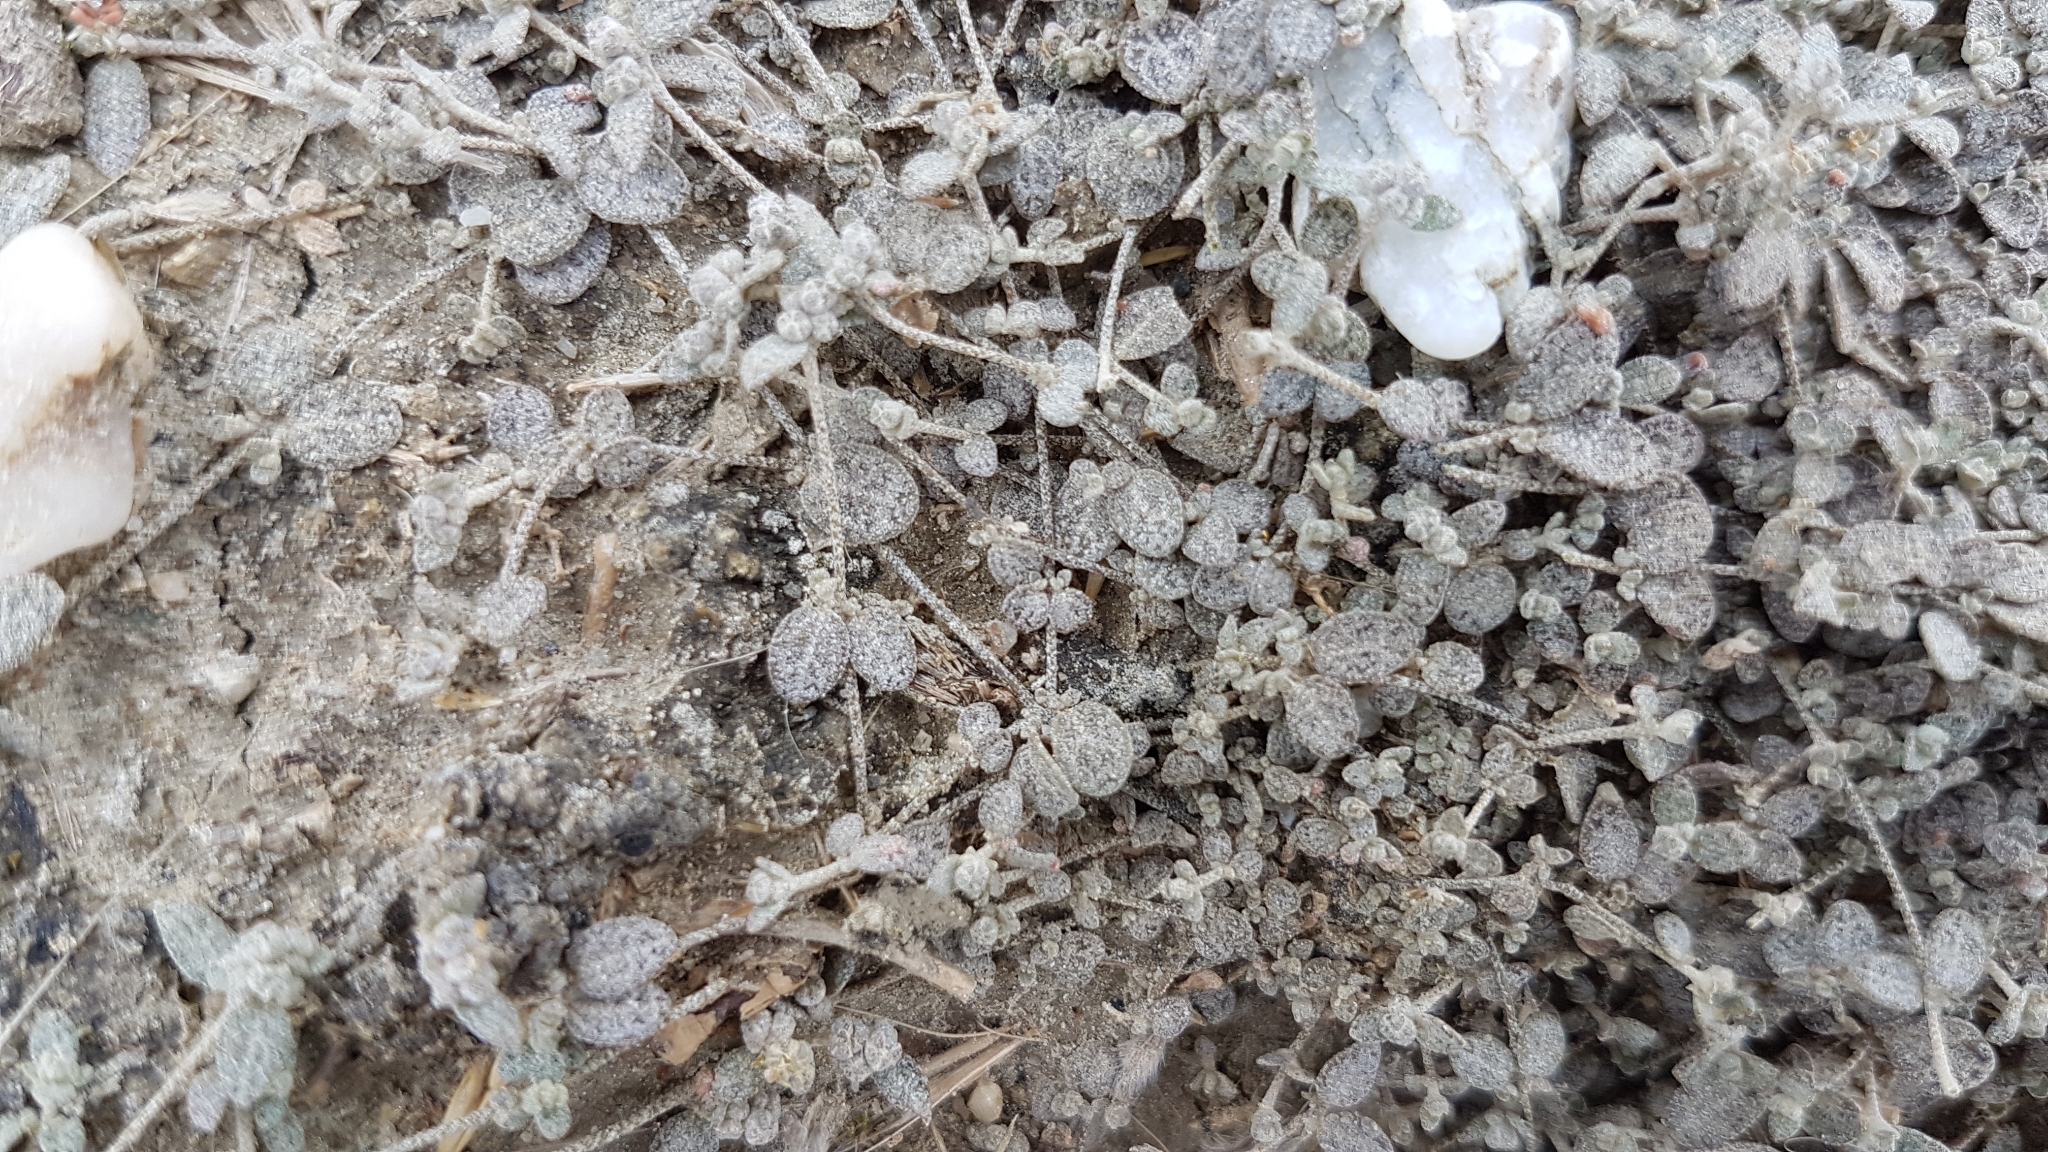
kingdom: Plantae
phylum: Tracheophyta
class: Magnoliopsida
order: Caryophyllales
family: Amaranthaceae
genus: Atriplex
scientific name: Atriplex buchananii
